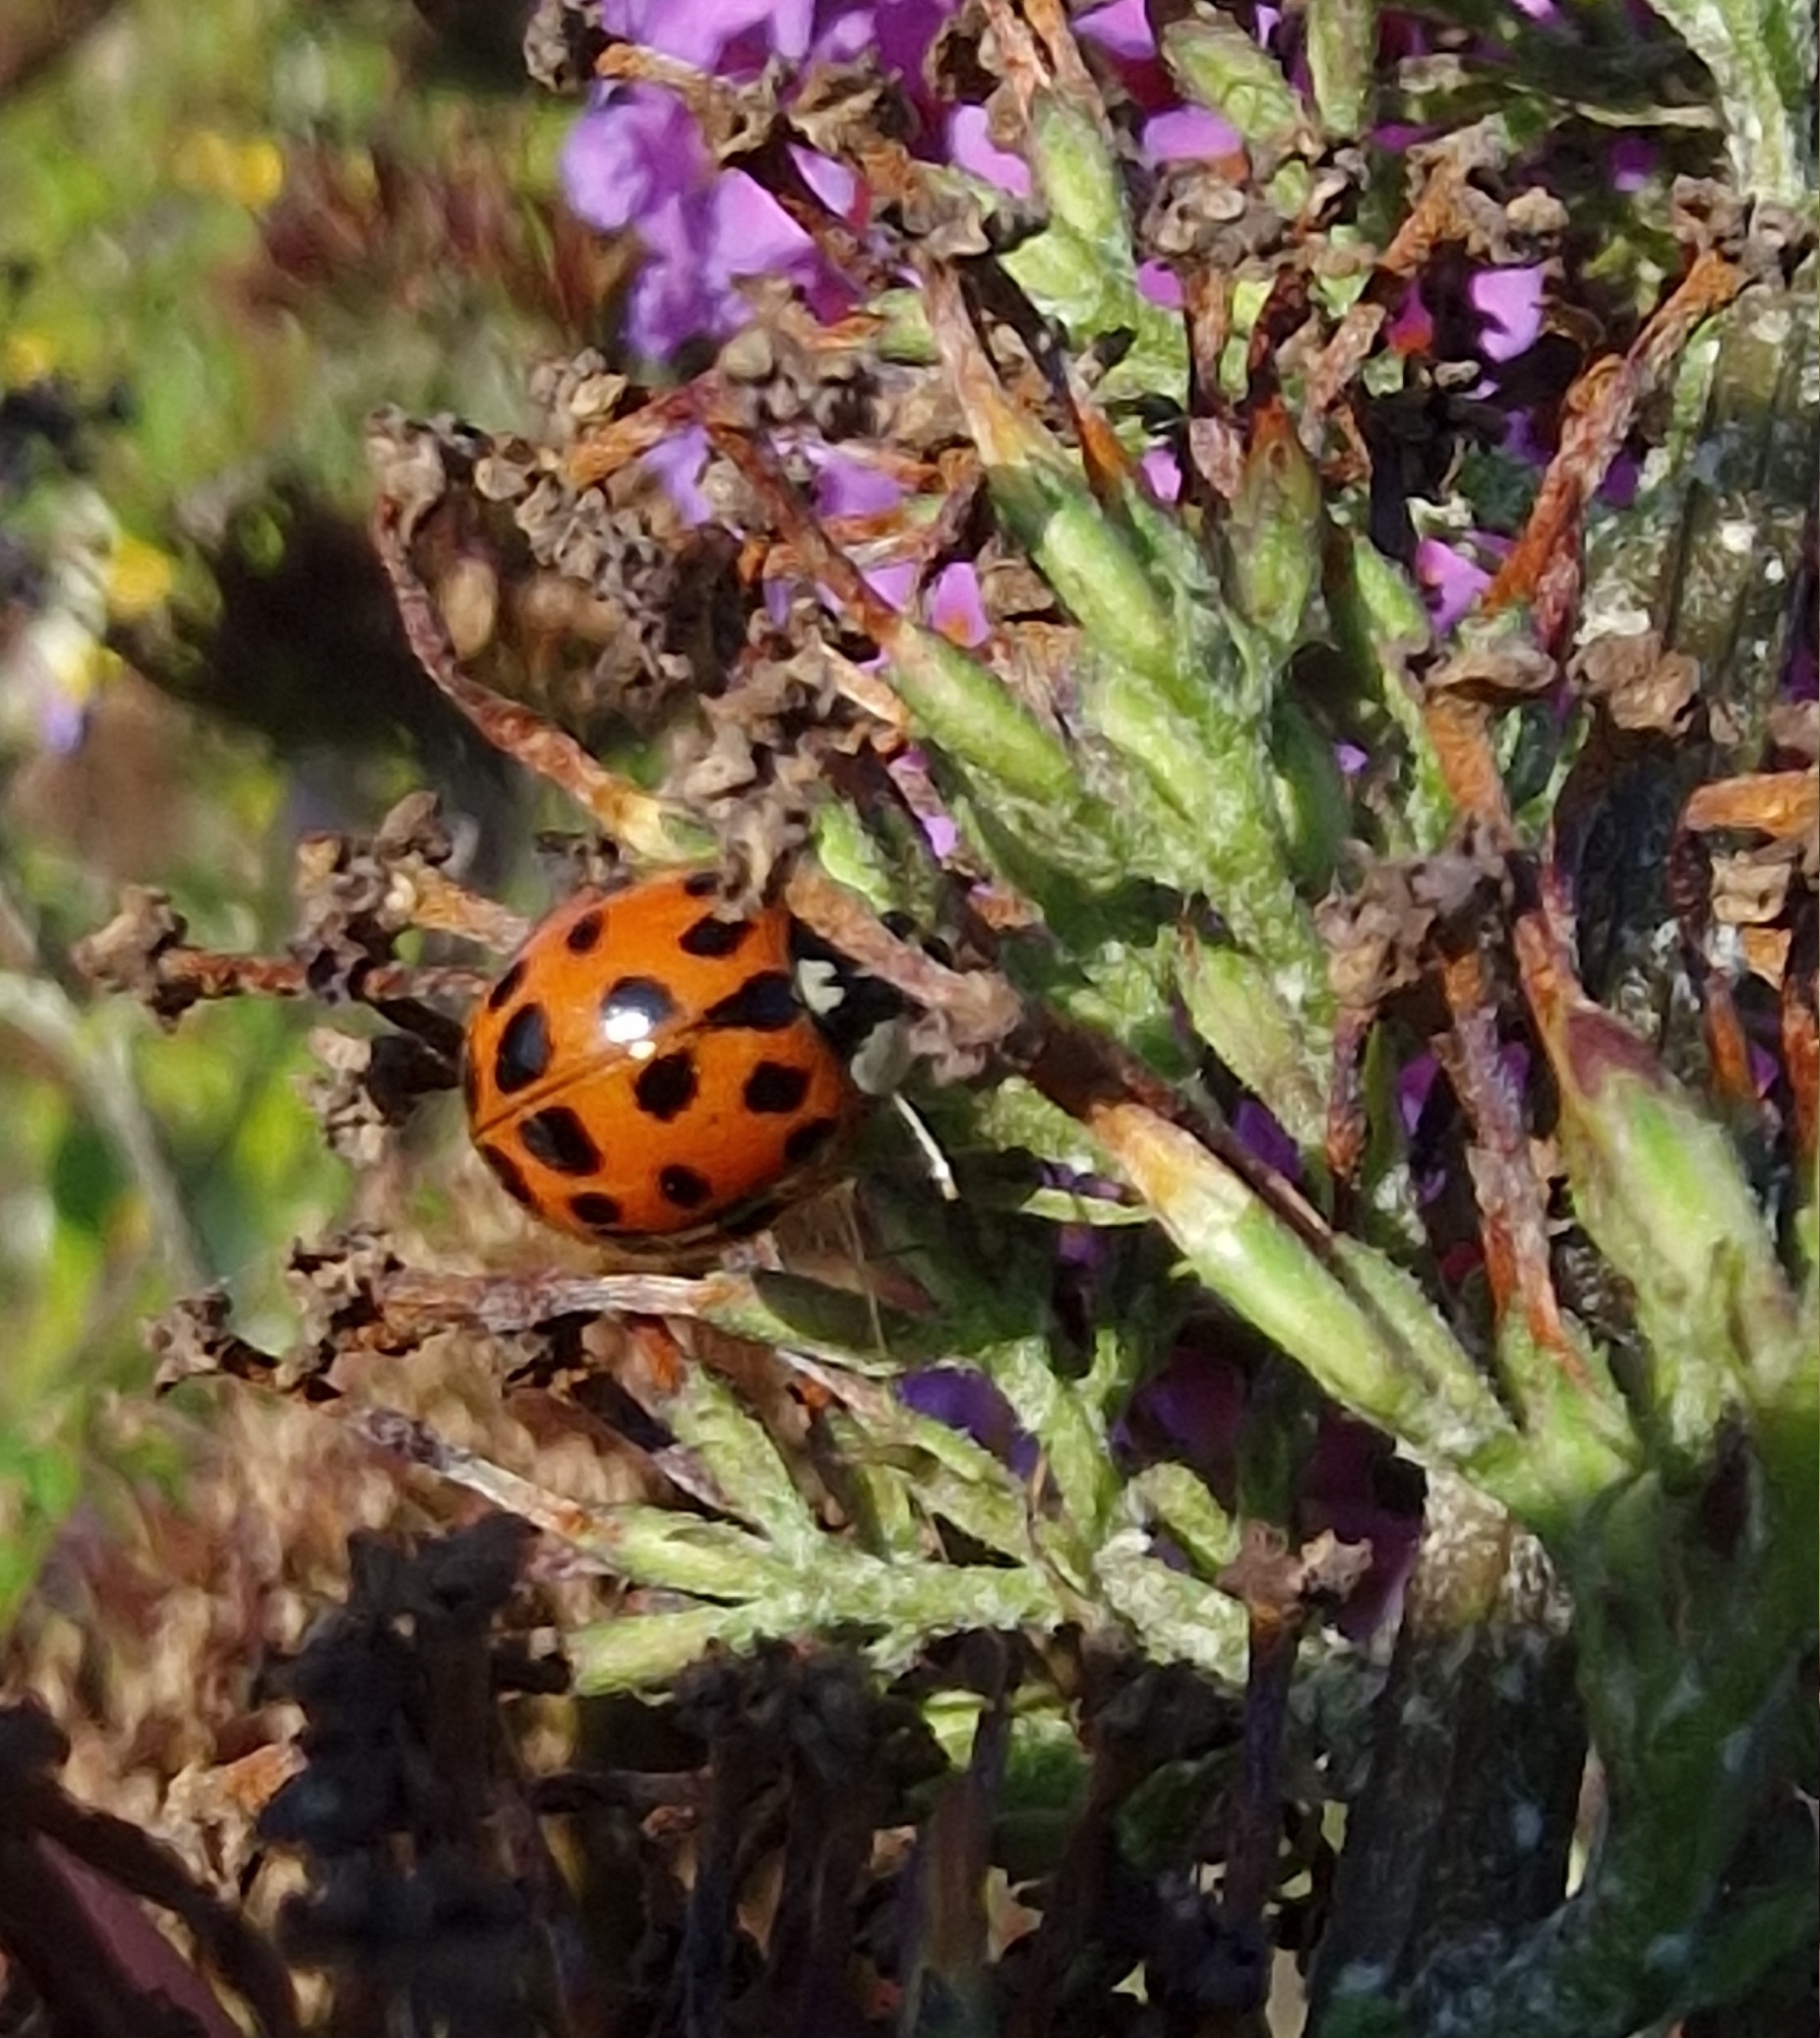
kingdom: Animalia
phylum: Arthropoda
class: Insecta
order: Coleoptera
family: Coccinellidae
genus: Harmonia
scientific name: Harmonia axyridis
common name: Harlequin ladybird
